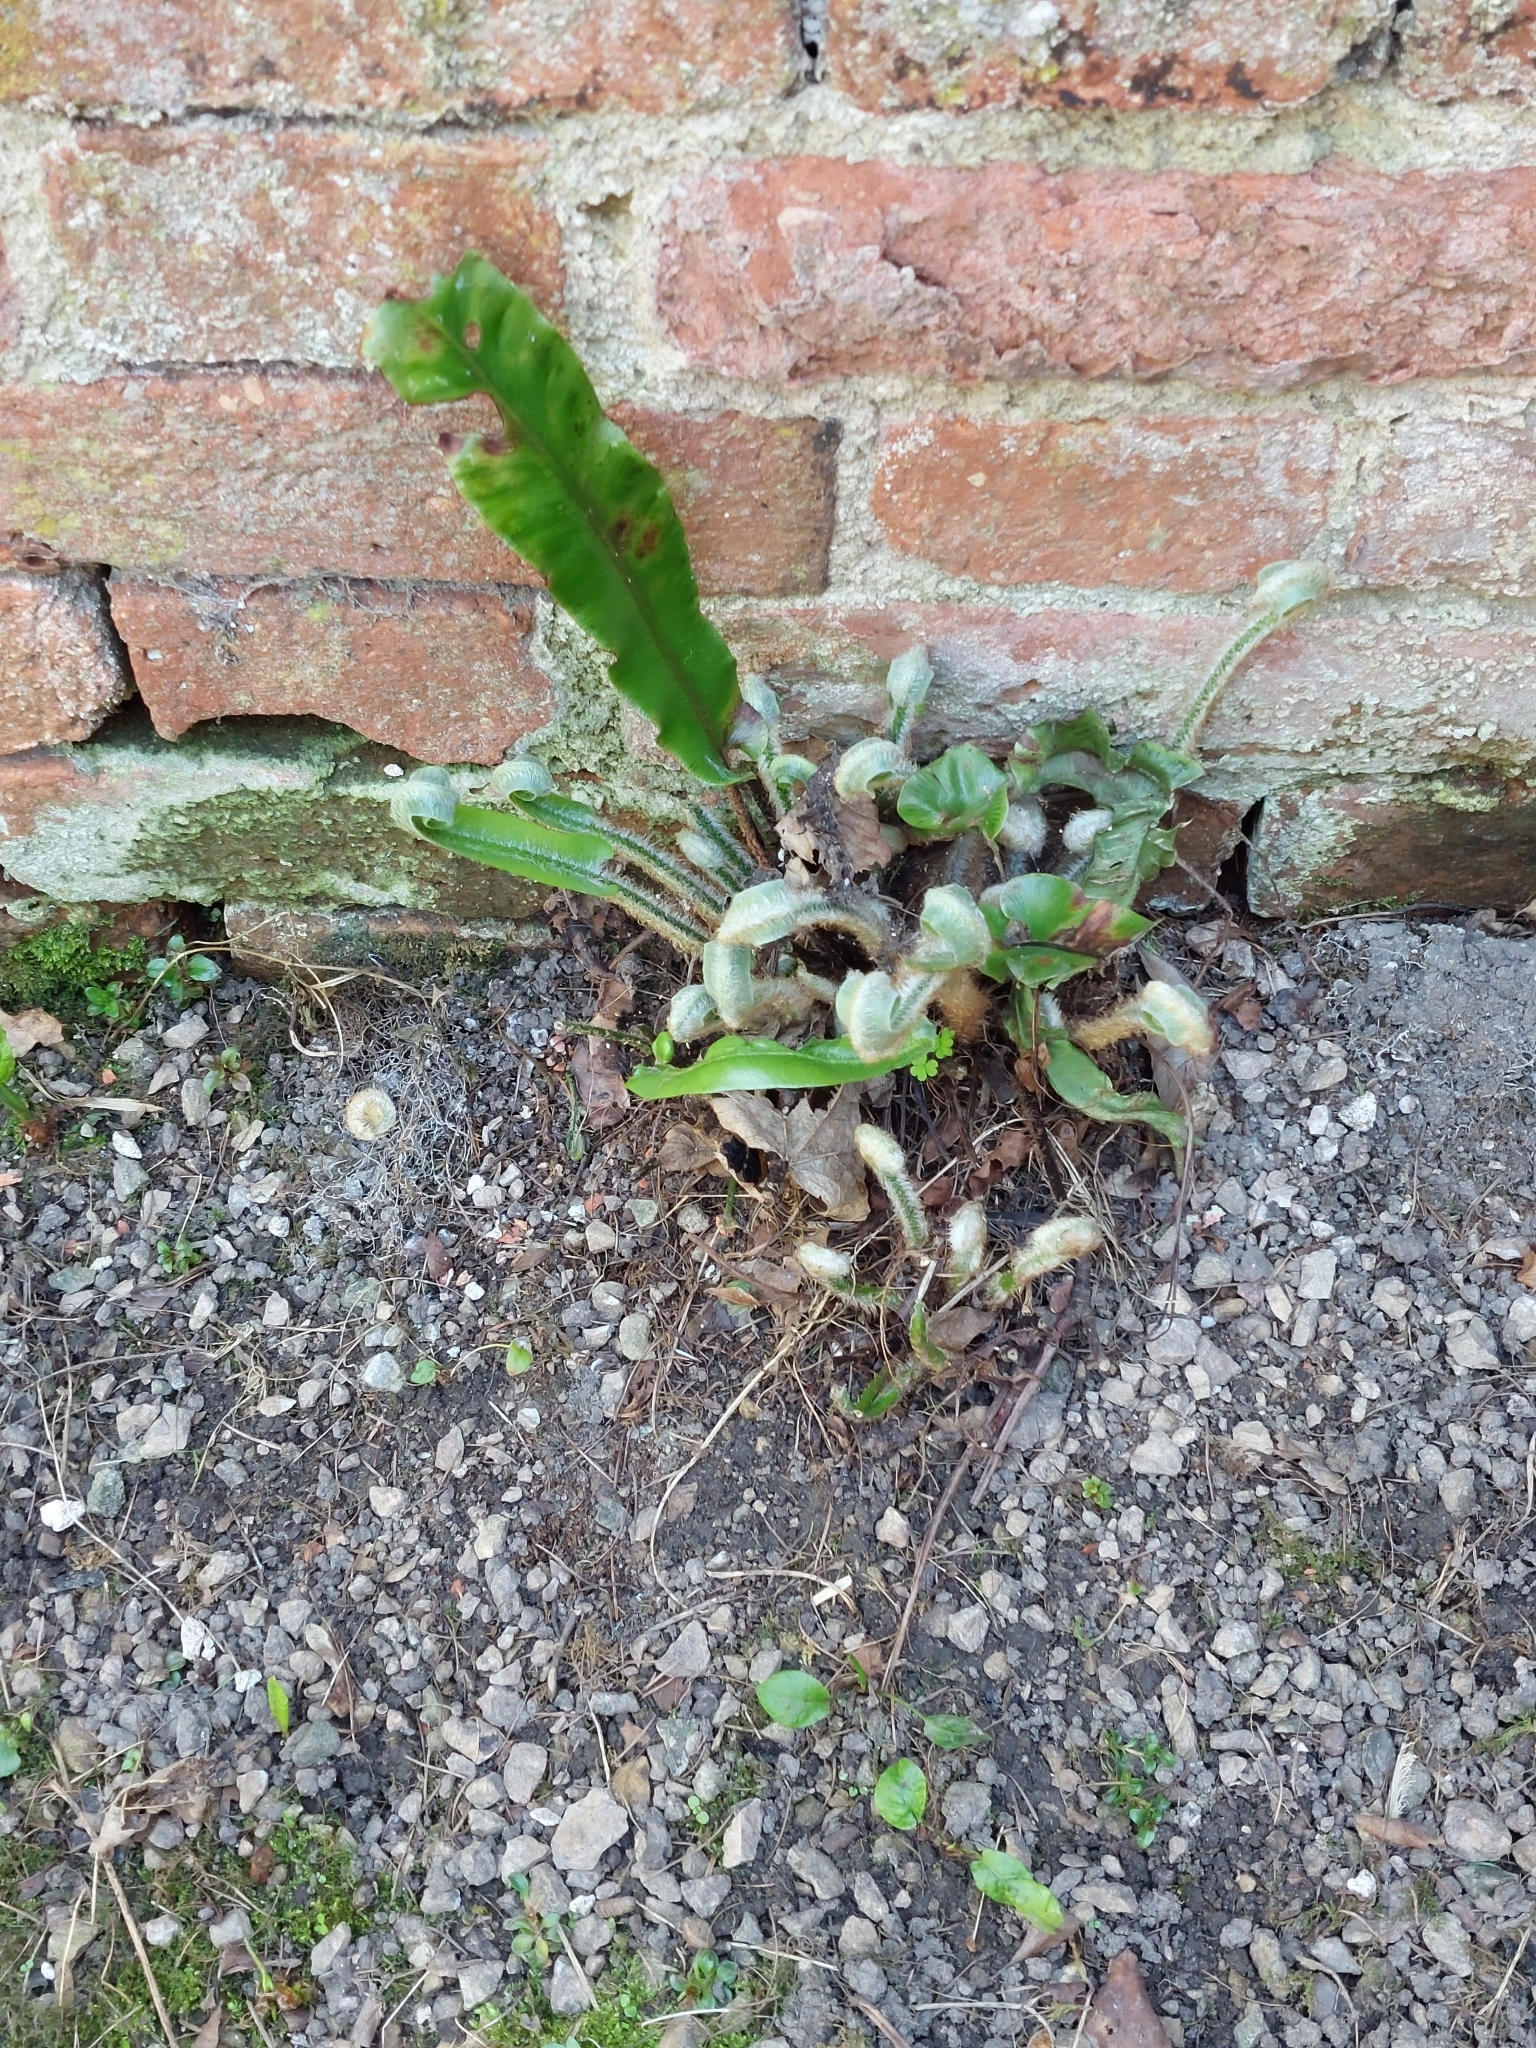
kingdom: Plantae
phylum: Tracheophyta
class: Polypodiopsida
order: Polypodiales
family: Aspleniaceae
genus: Asplenium
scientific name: Asplenium scolopendrium
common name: Hart's-tongue fern
